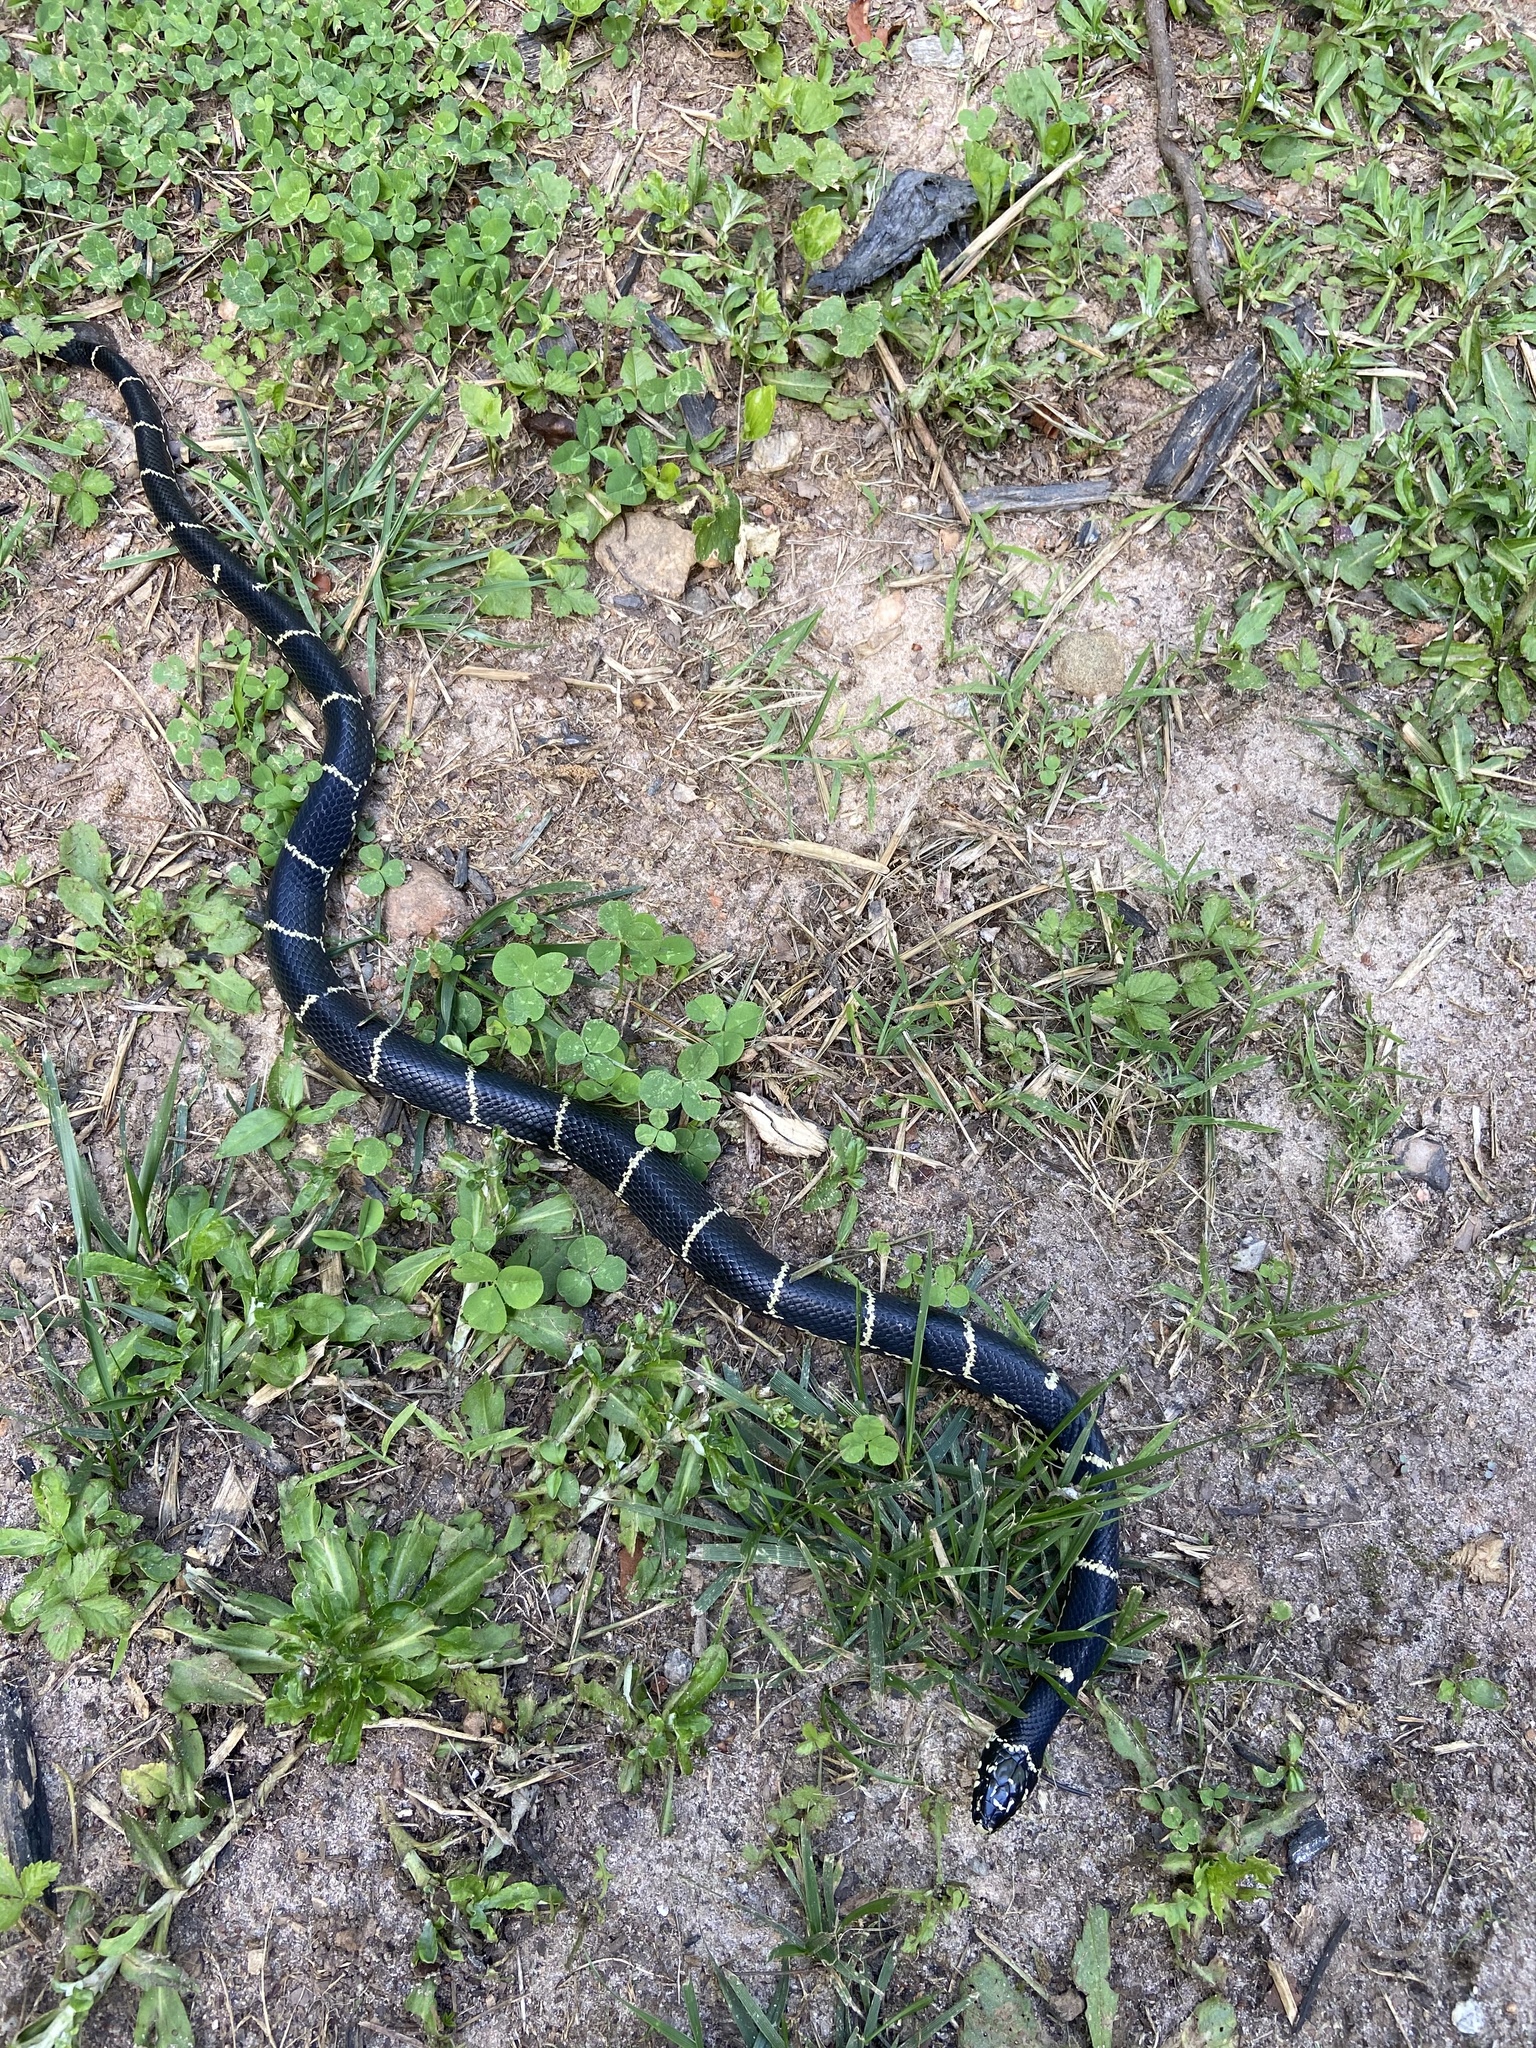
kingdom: Animalia
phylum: Chordata
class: Squamata
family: Colubridae
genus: Lampropeltis
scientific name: Lampropeltis getula
